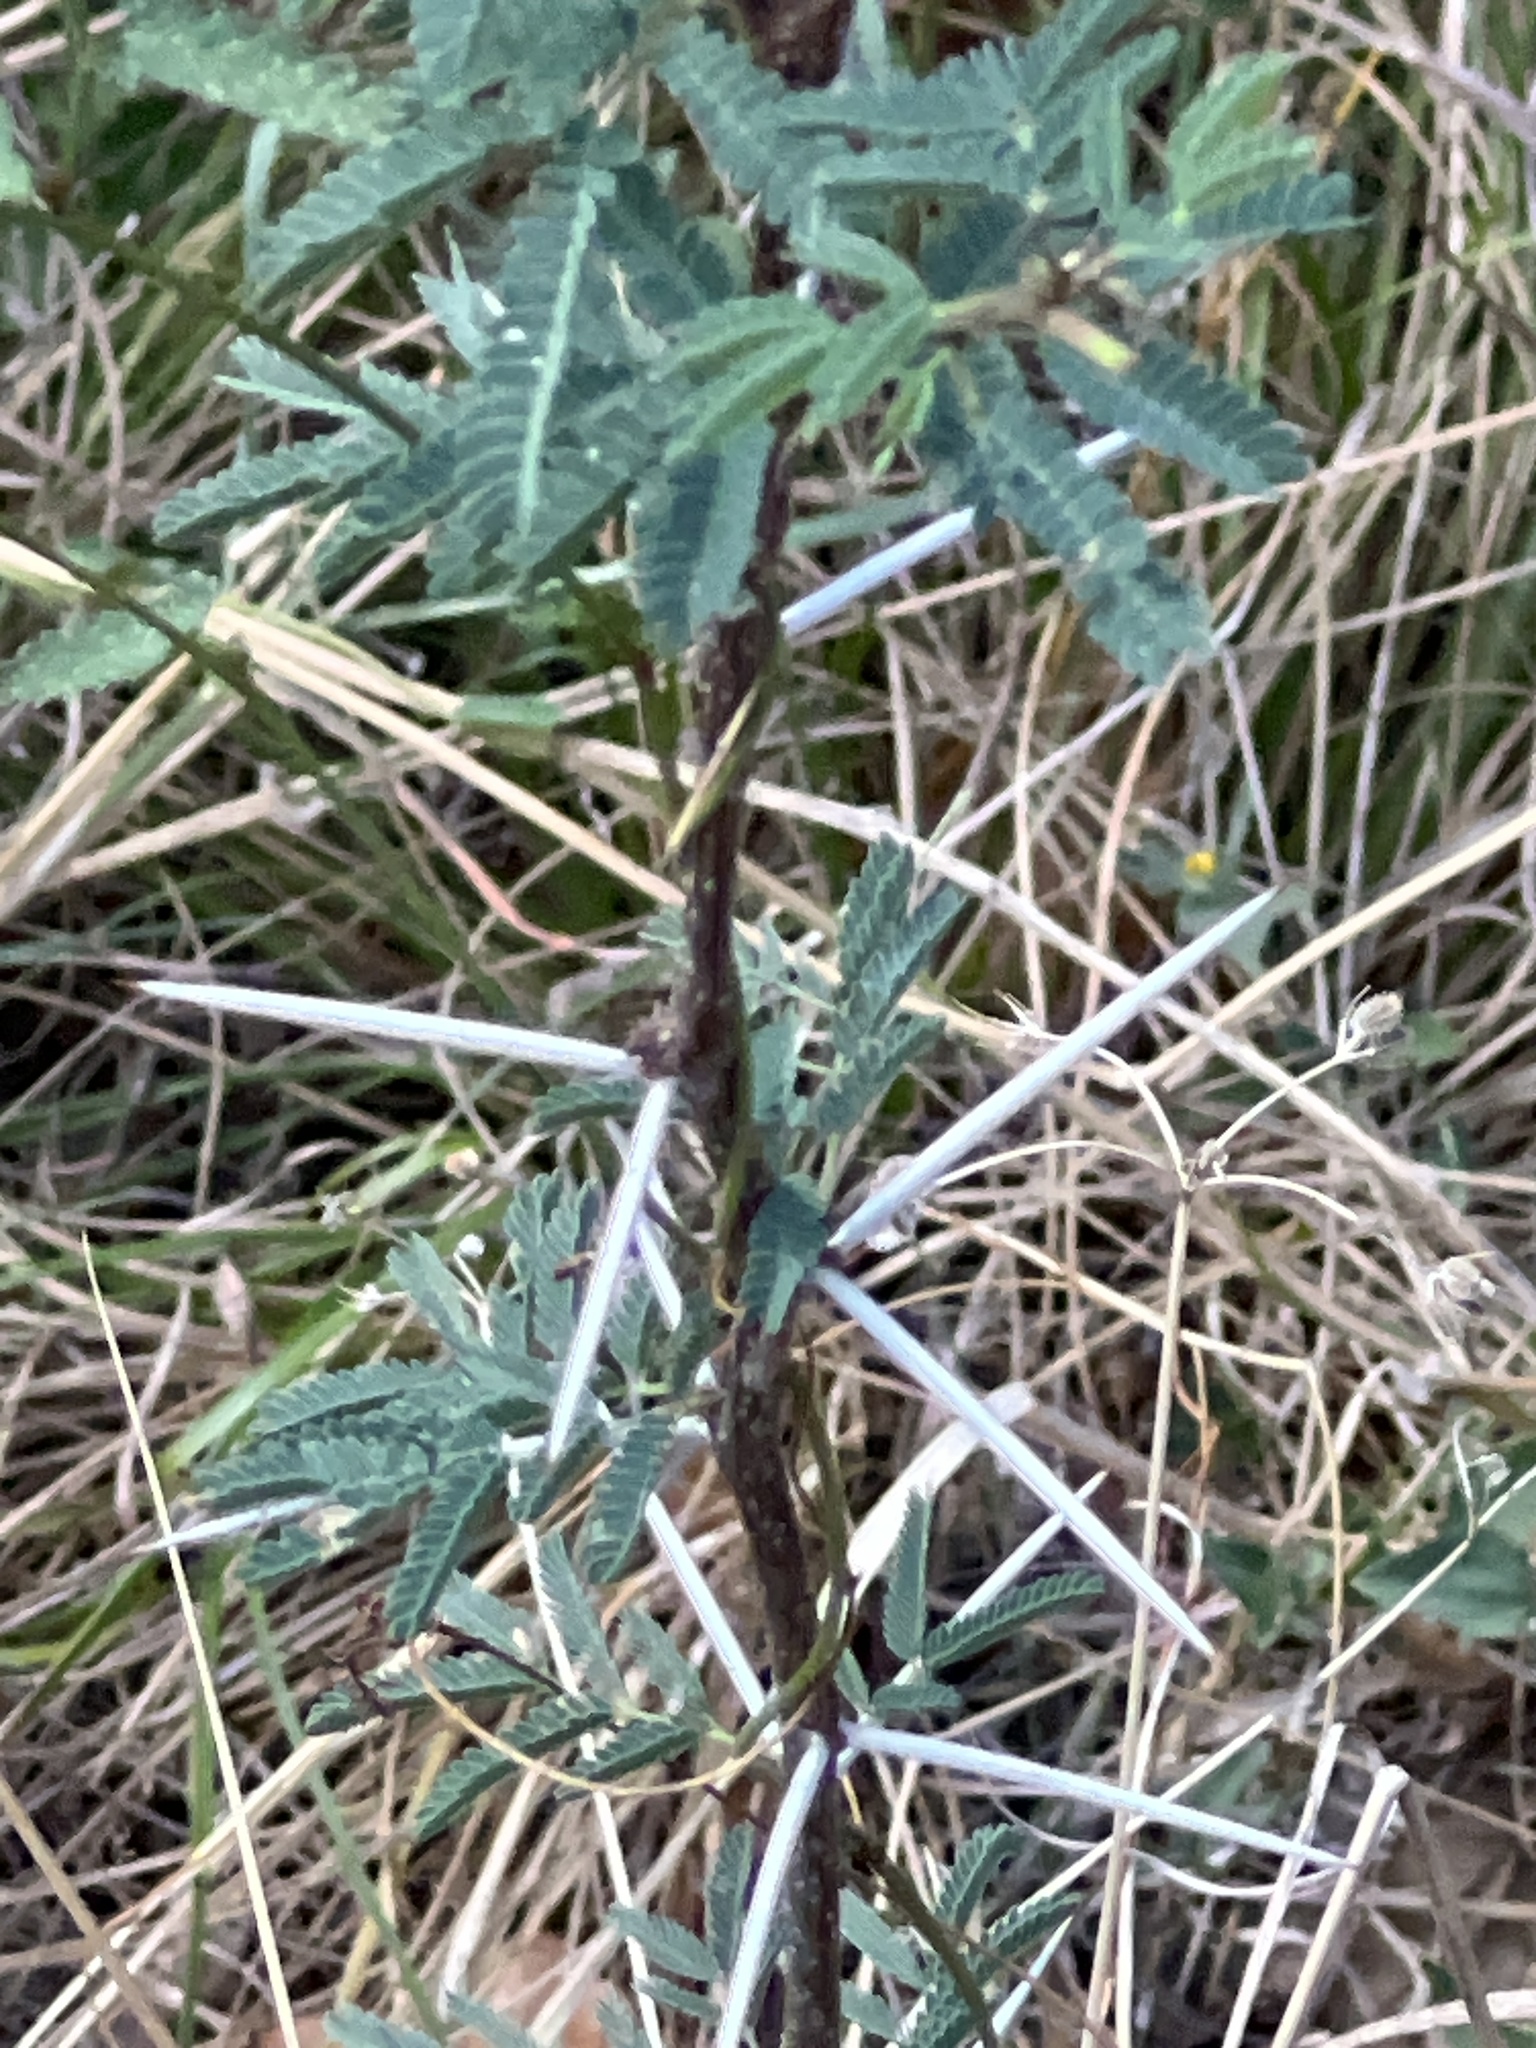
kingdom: Plantae
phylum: Tracheophyta
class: Magnoliopsida
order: Fabales
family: Fabaceae
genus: Vachellia
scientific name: Vachellia farnesiana
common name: Sweet acacia
